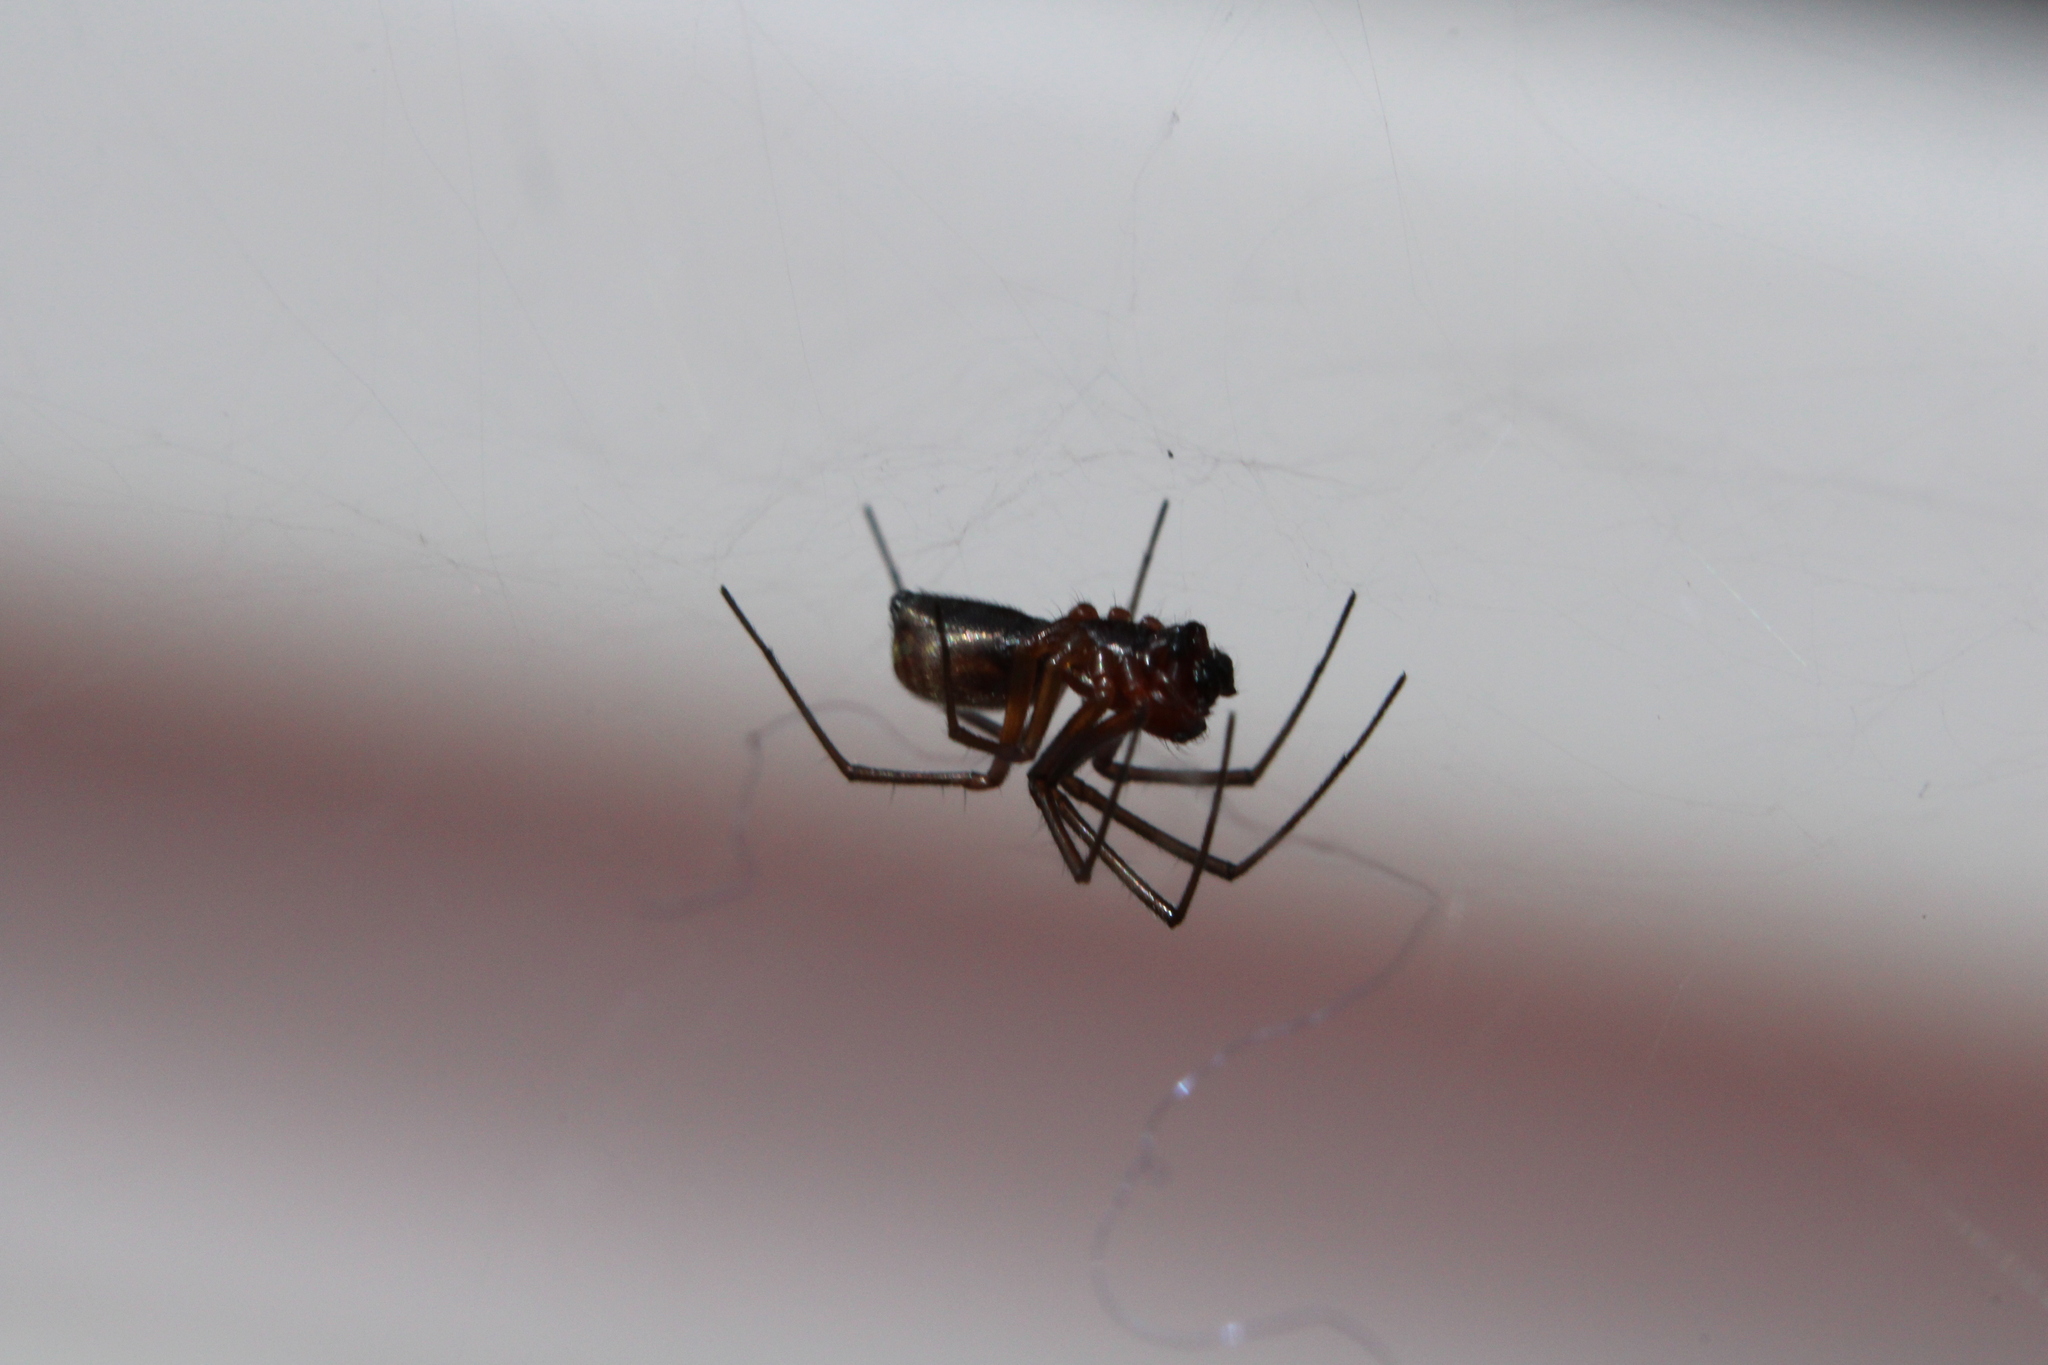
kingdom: Animalia
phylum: Arthropoda
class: Arachnida
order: Araneae
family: Linyphiidae
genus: Frontinella
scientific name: Frontinella pyramitela
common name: Bowl-and-doily spider
